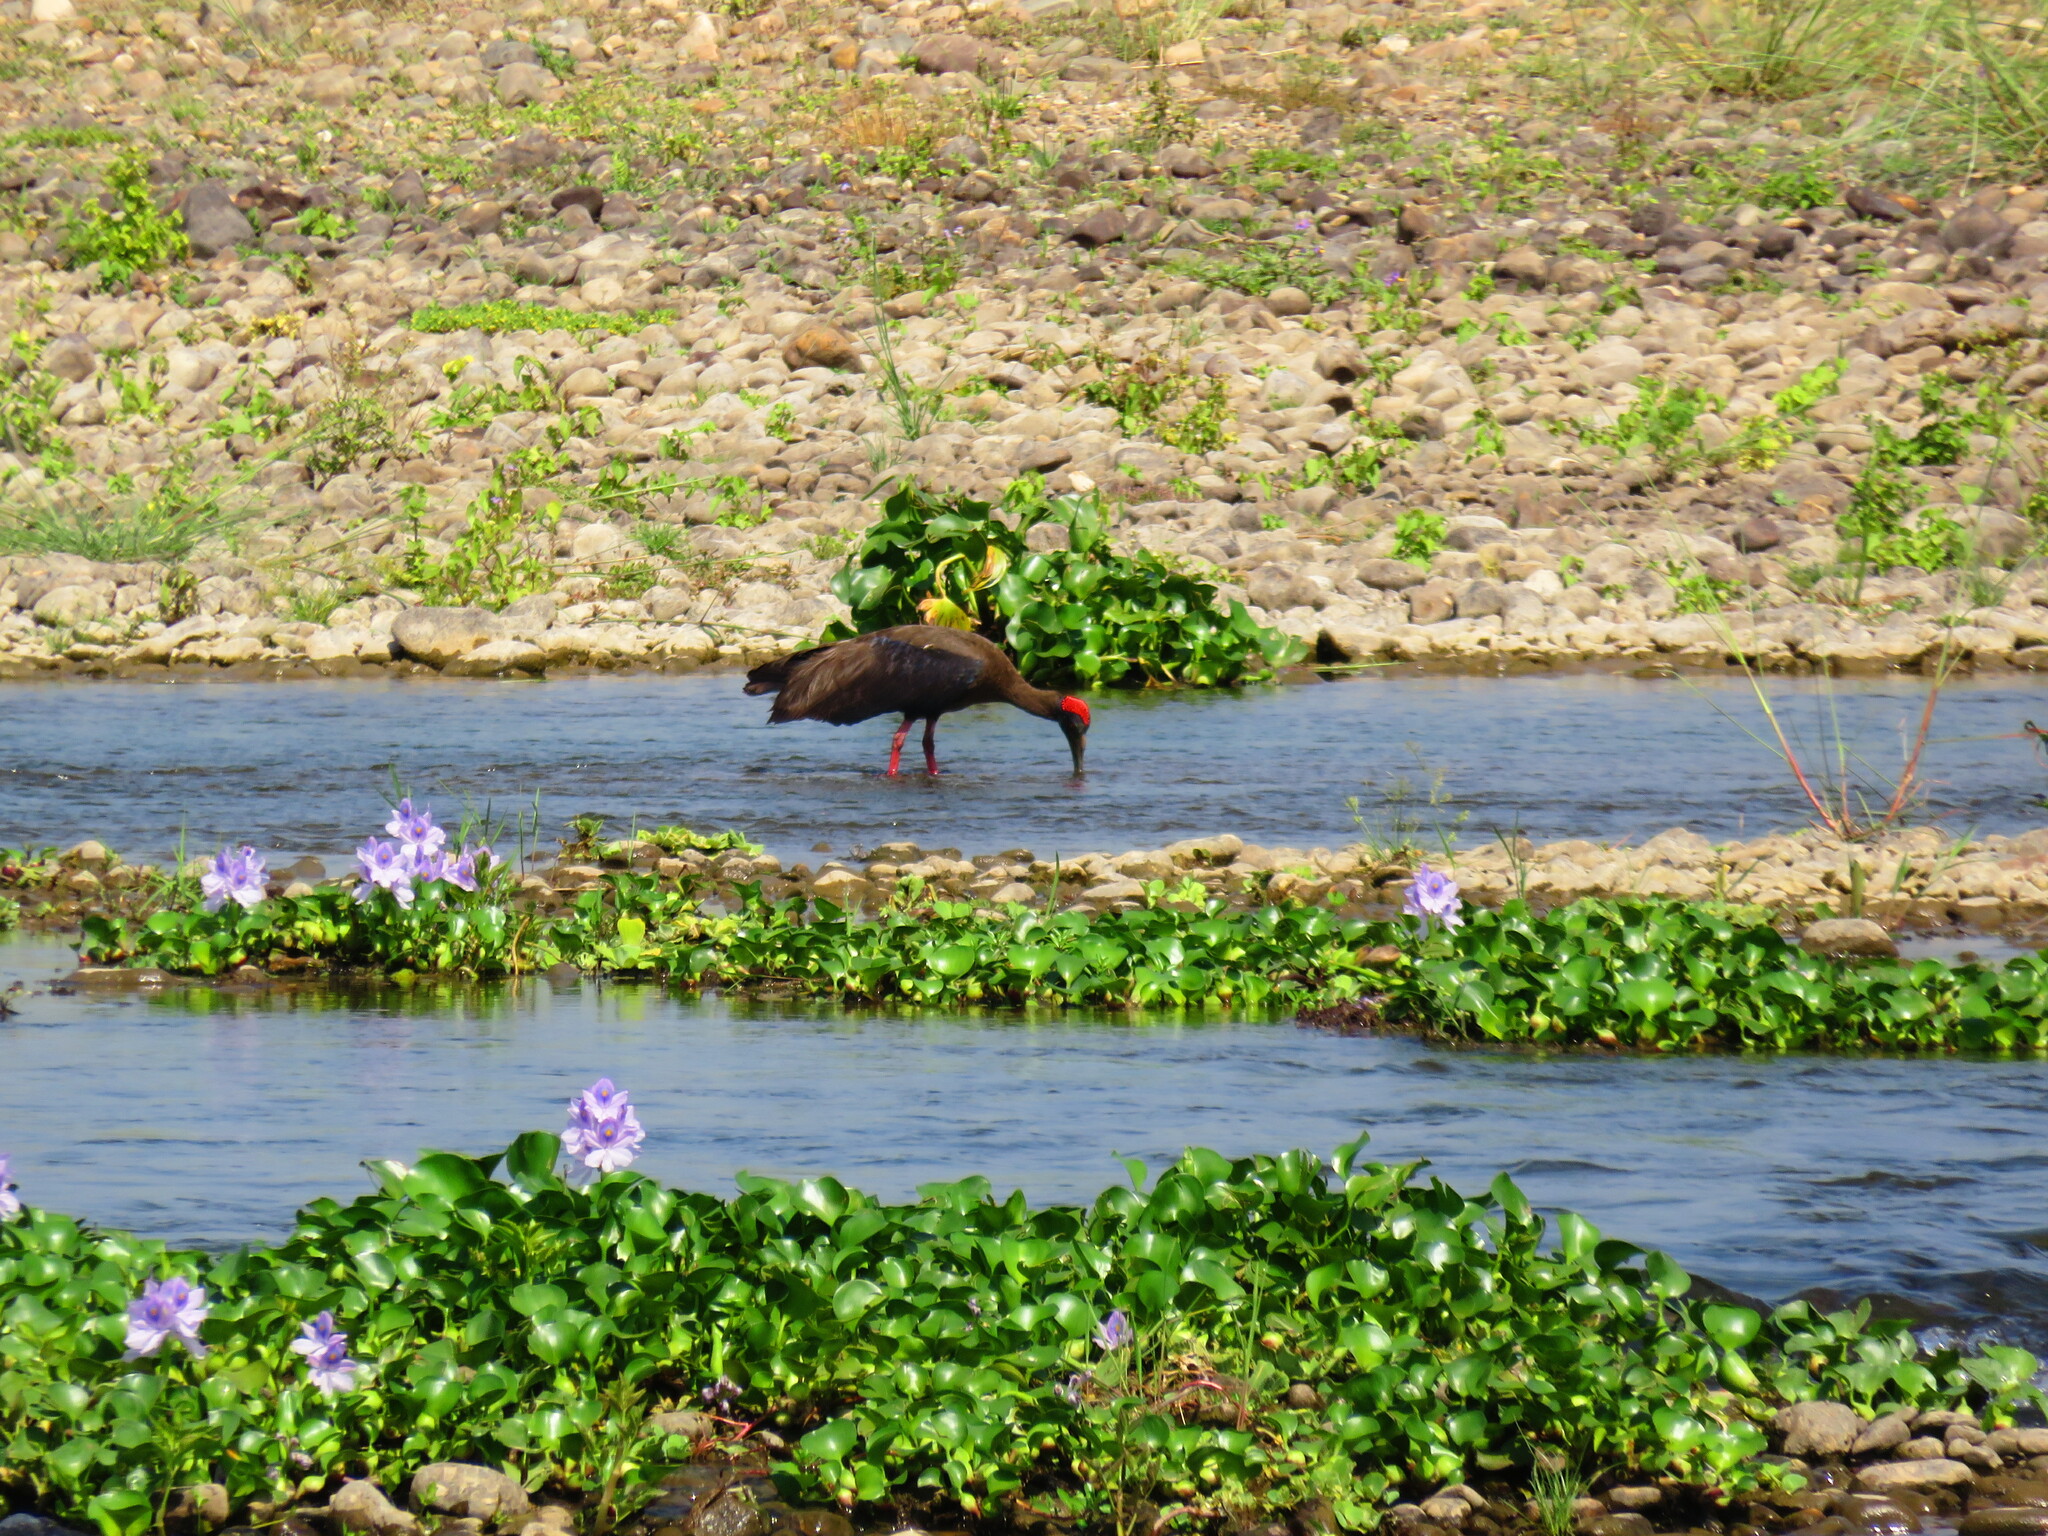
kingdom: Animalia
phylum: Chordata
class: Aves
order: Pelecaniformes
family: Threskiornithidae
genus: Pseudibis
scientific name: Pseudibis papillosa
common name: Red-naped ibis
